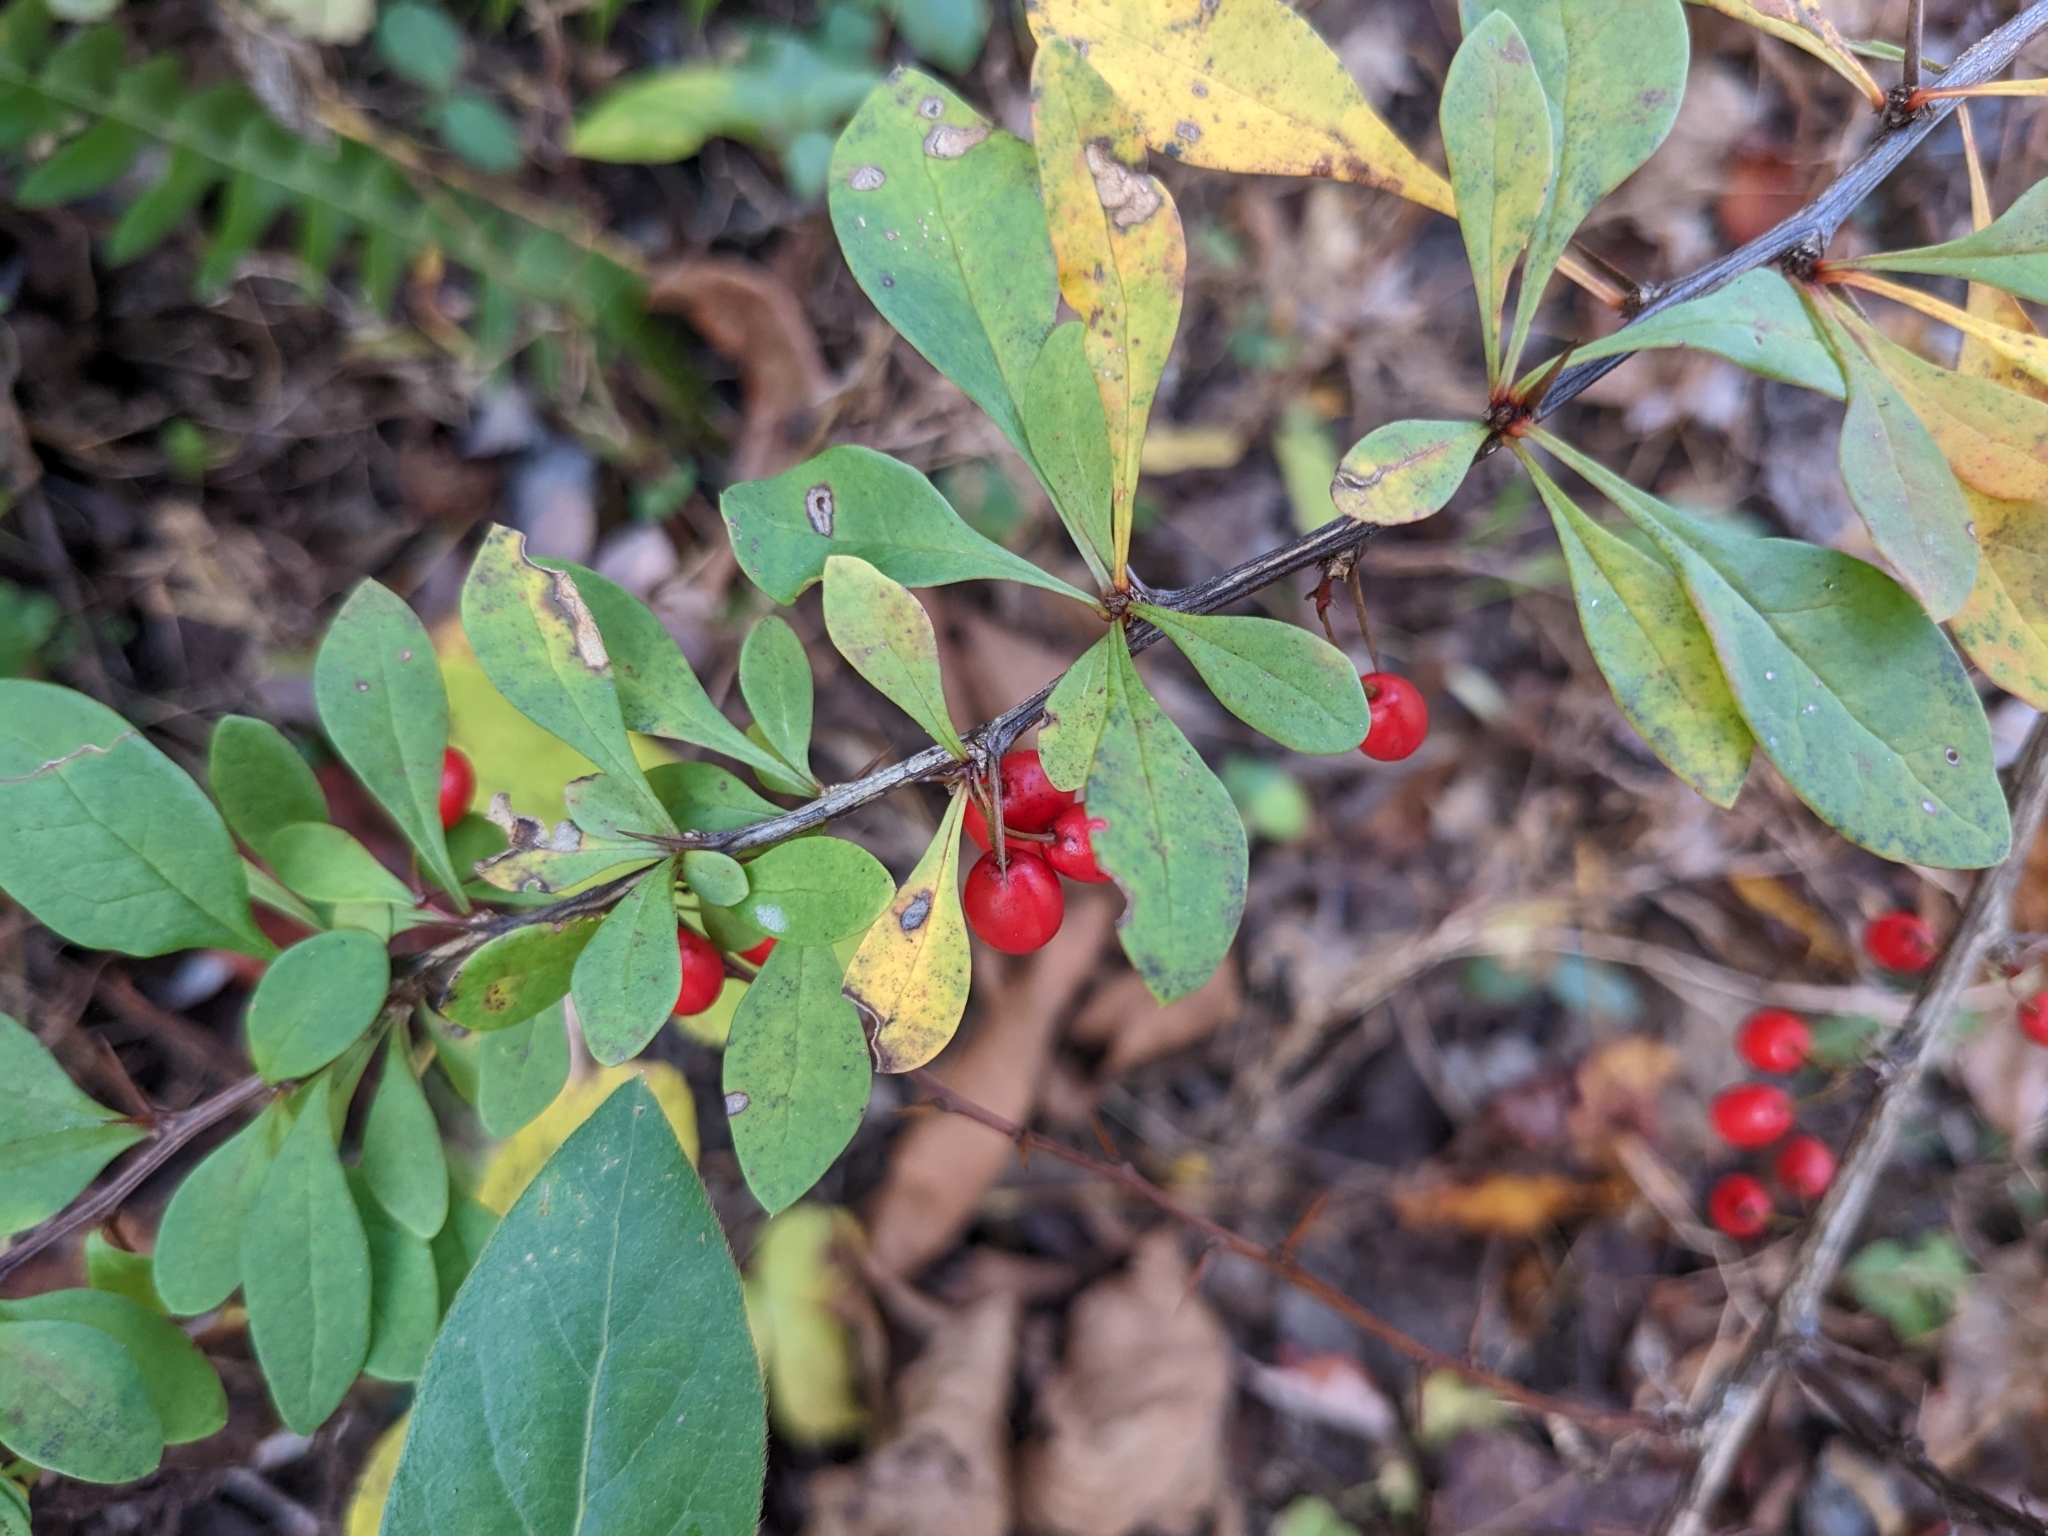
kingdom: Plantae
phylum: Tracheophyta
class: Magnoliopsida
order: Ranunculales
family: Berberidaceae
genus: Berberis
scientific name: Berberis thunbergii
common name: Japanese barberry
